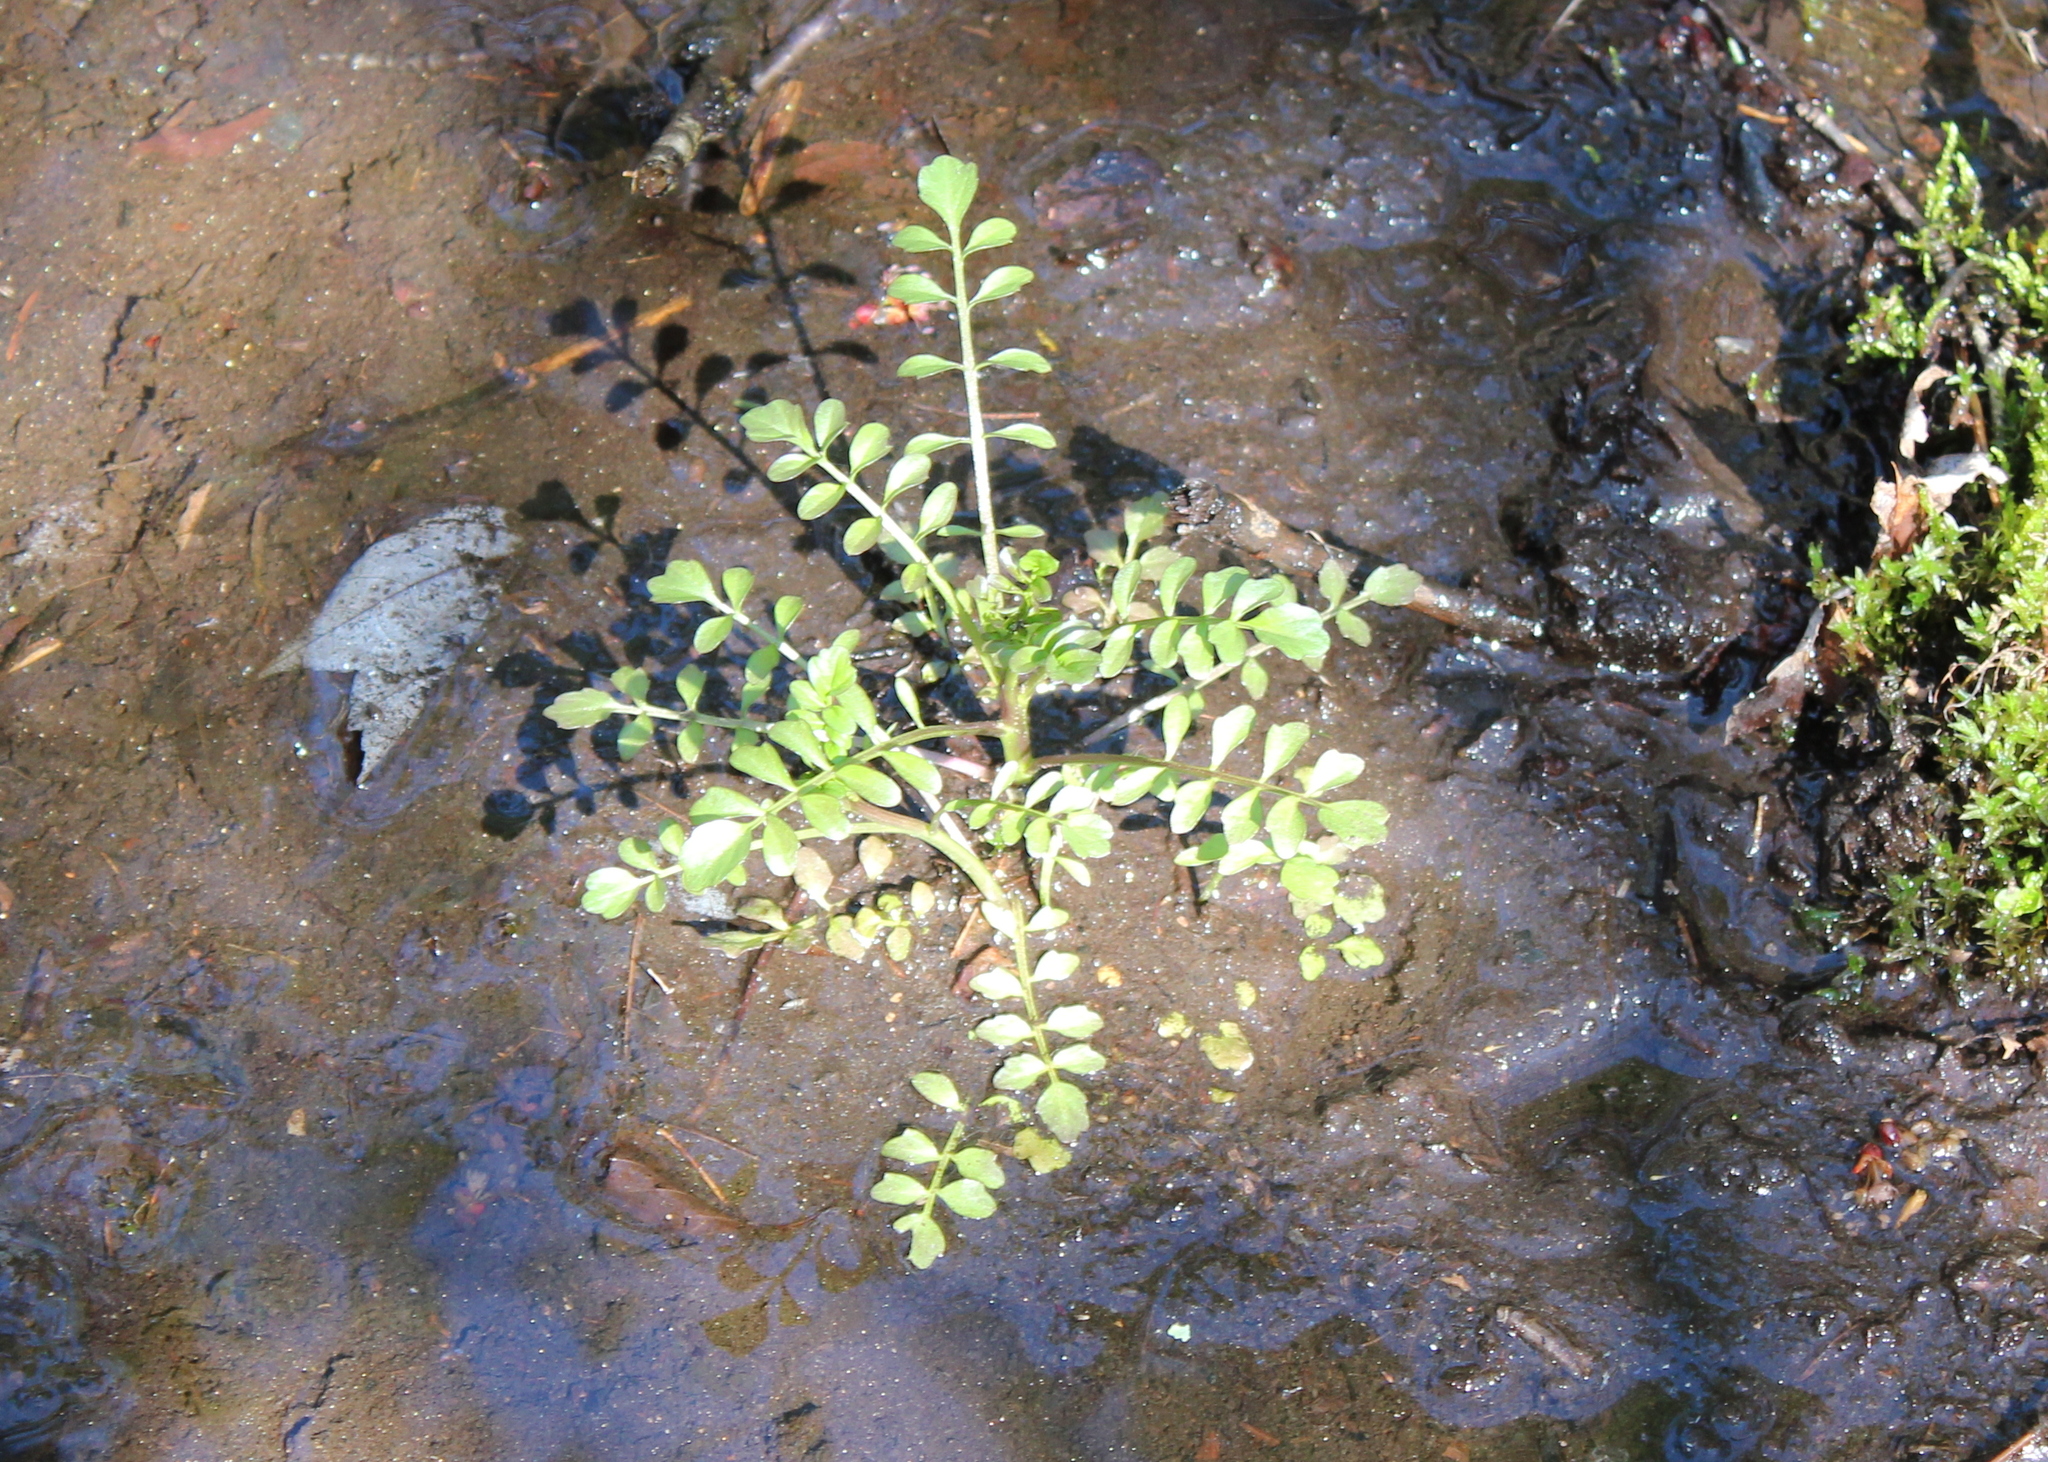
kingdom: Plantae
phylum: Tracheophyta
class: Magnoliopsida
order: Brassicales
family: Brassicaceae
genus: Cardamine
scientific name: Cardamine pensylvanica
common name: Pennsylvania bittercress
